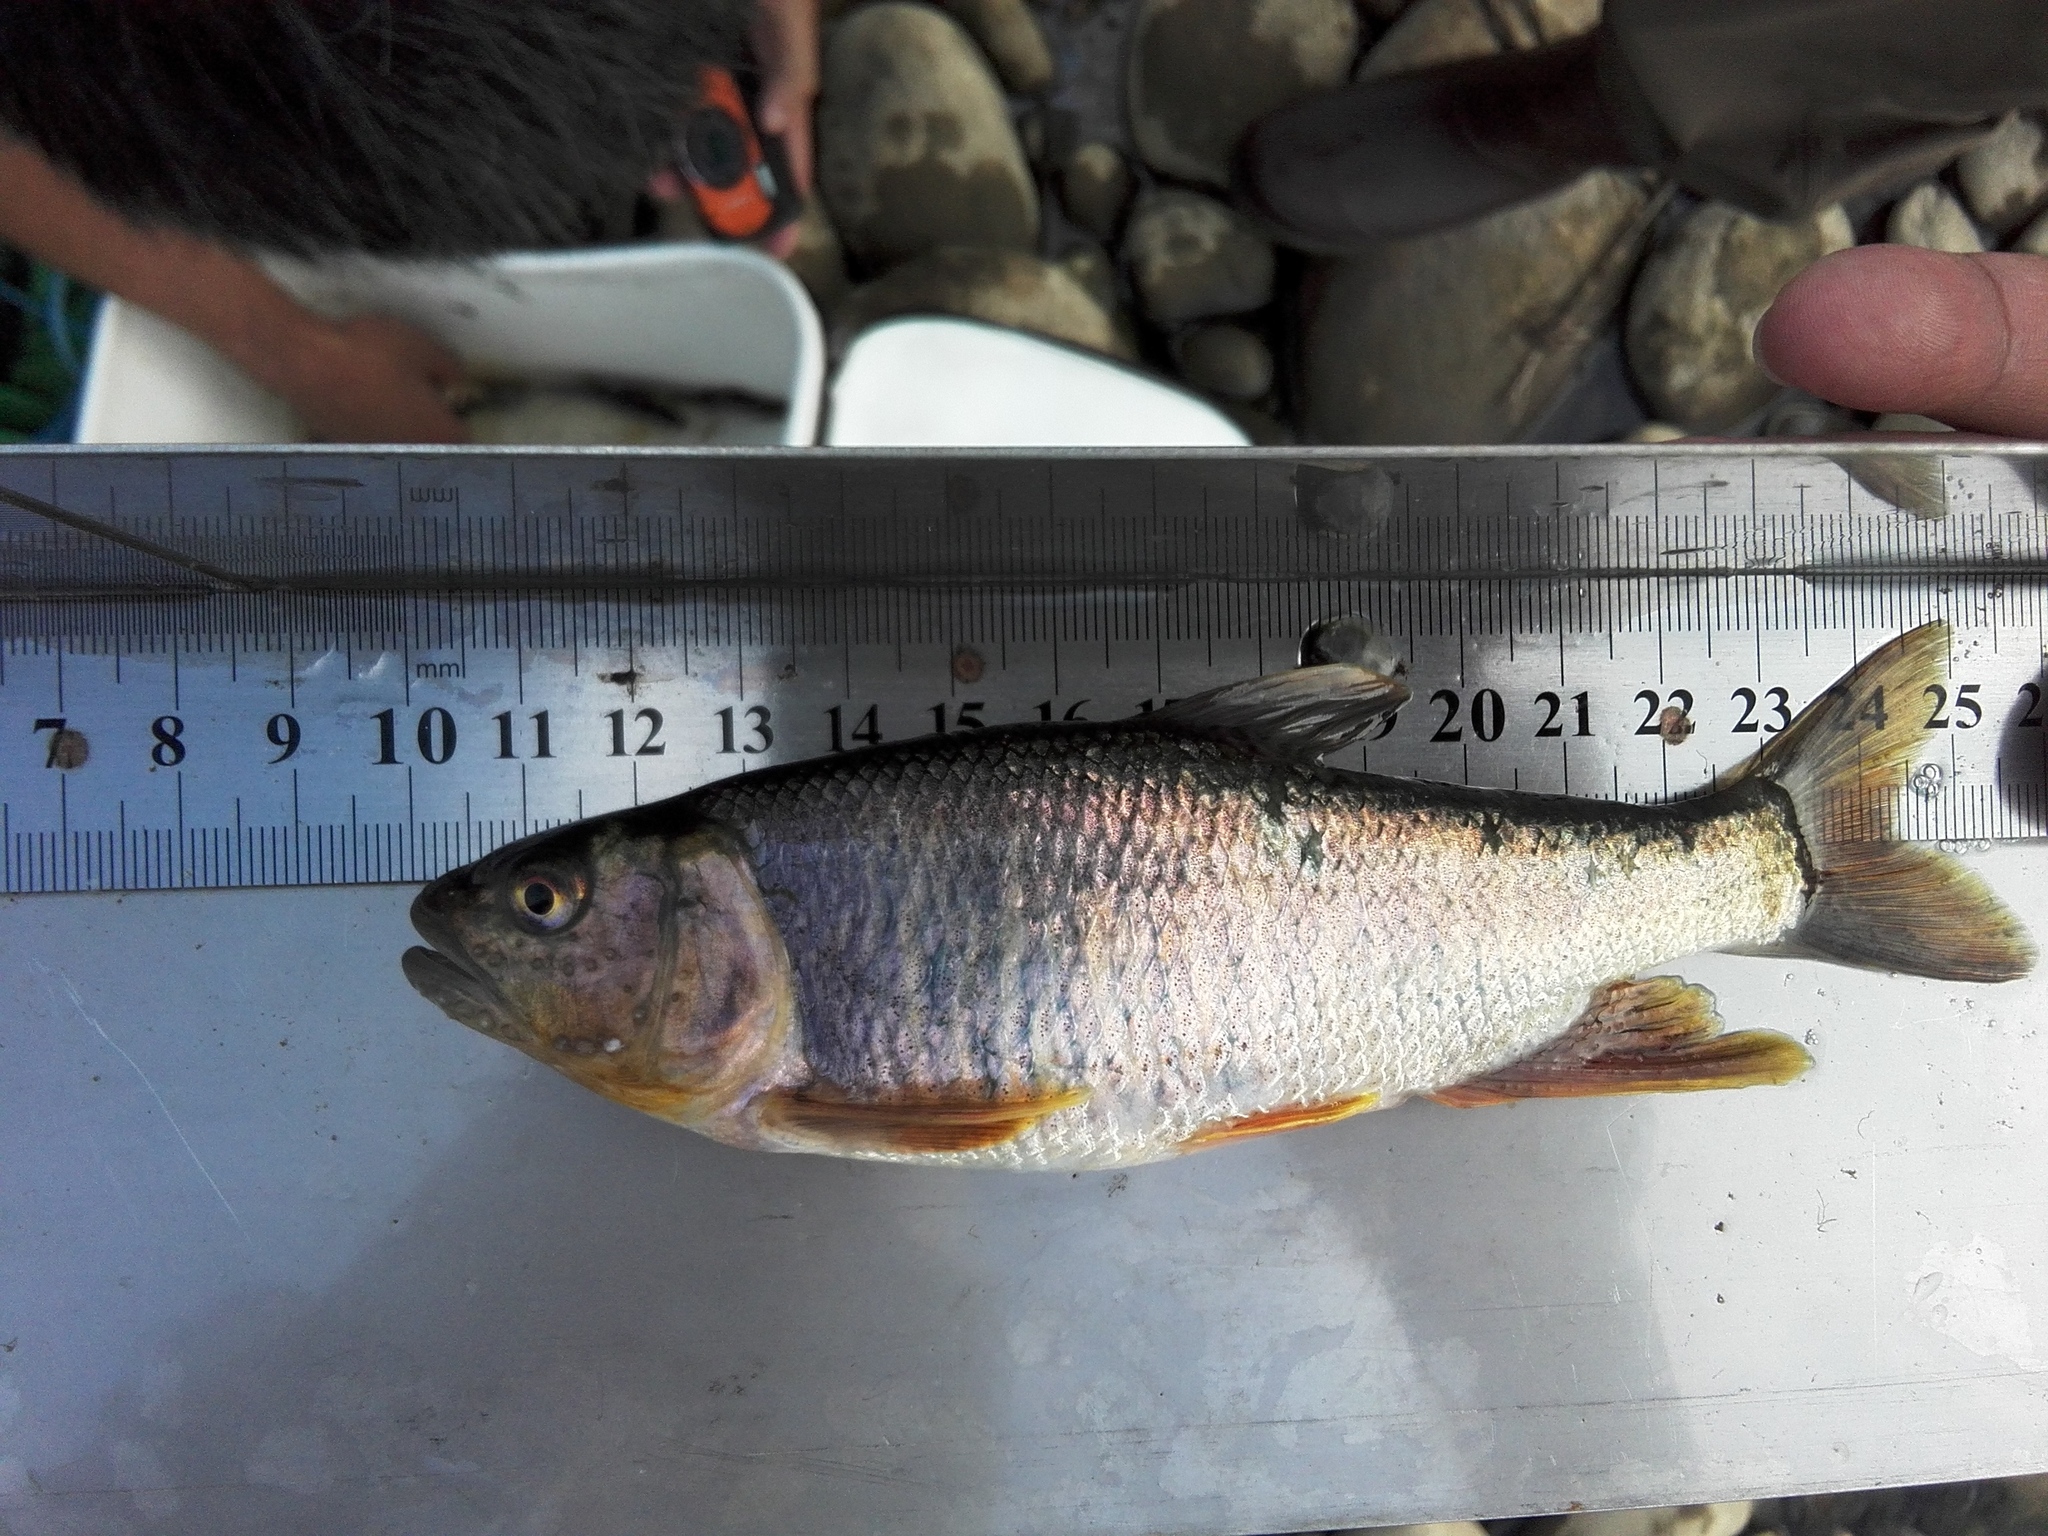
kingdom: Animalia
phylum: Chordata
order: Cypriniformes
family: Cyprinidae
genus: Opsariichthys
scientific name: Opsariichthys pachycephalus
